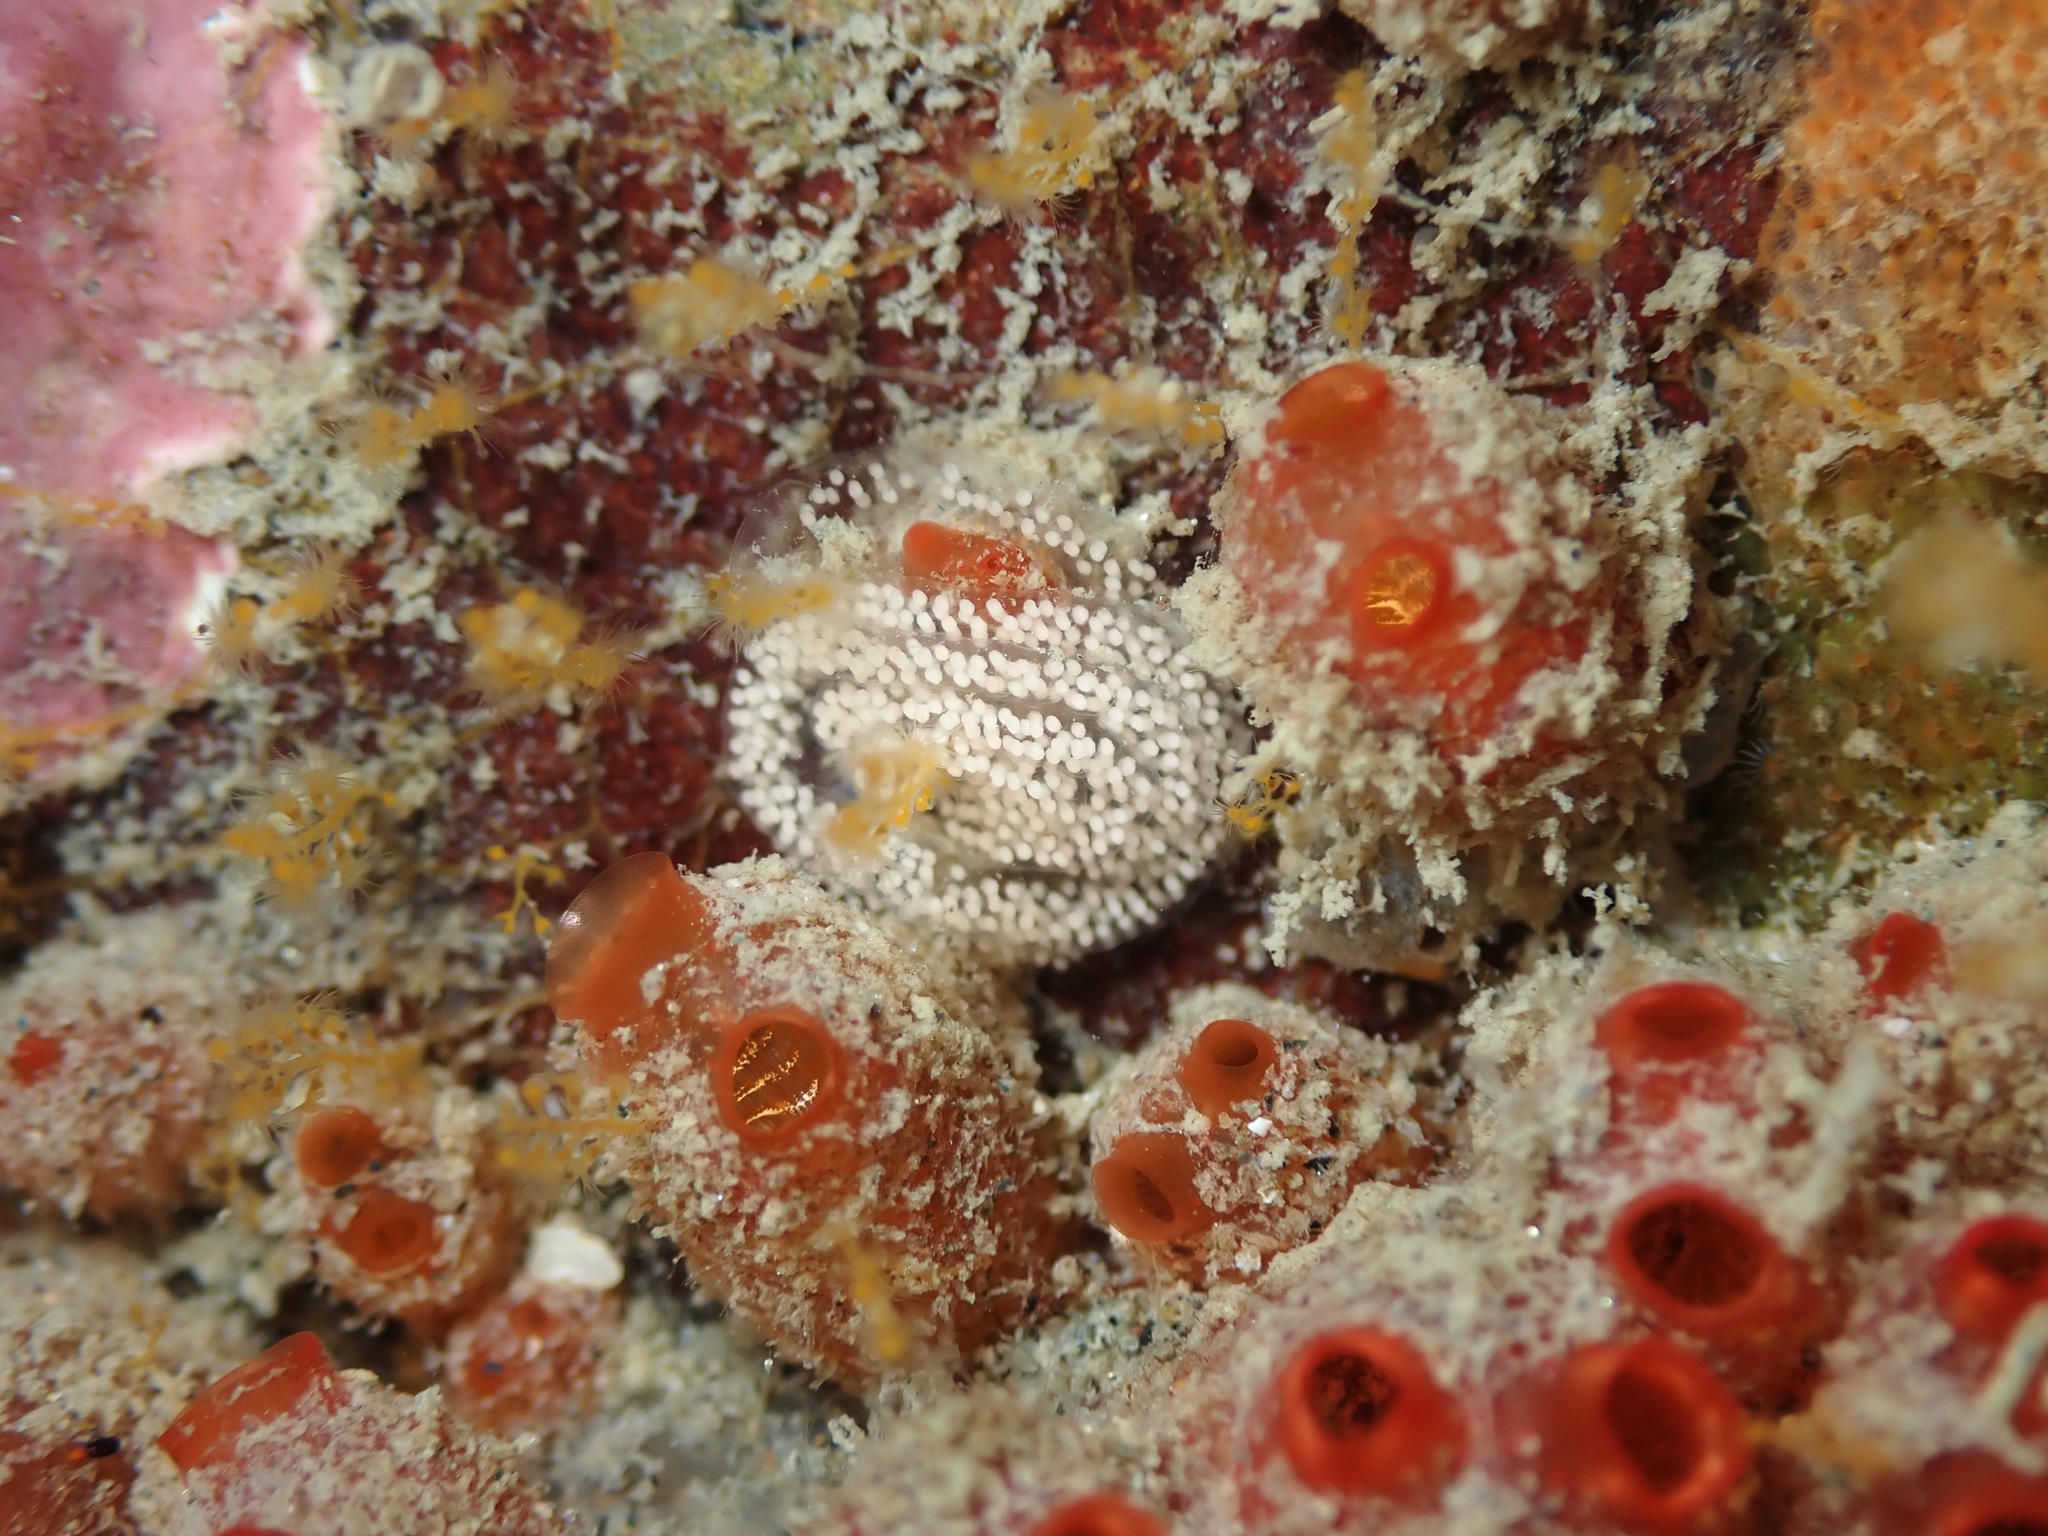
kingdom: Animalia
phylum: Mollusca
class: Gastropoda
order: Nudibranchia
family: Facelinidae
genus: Phidiana
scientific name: Phidiana milleri
